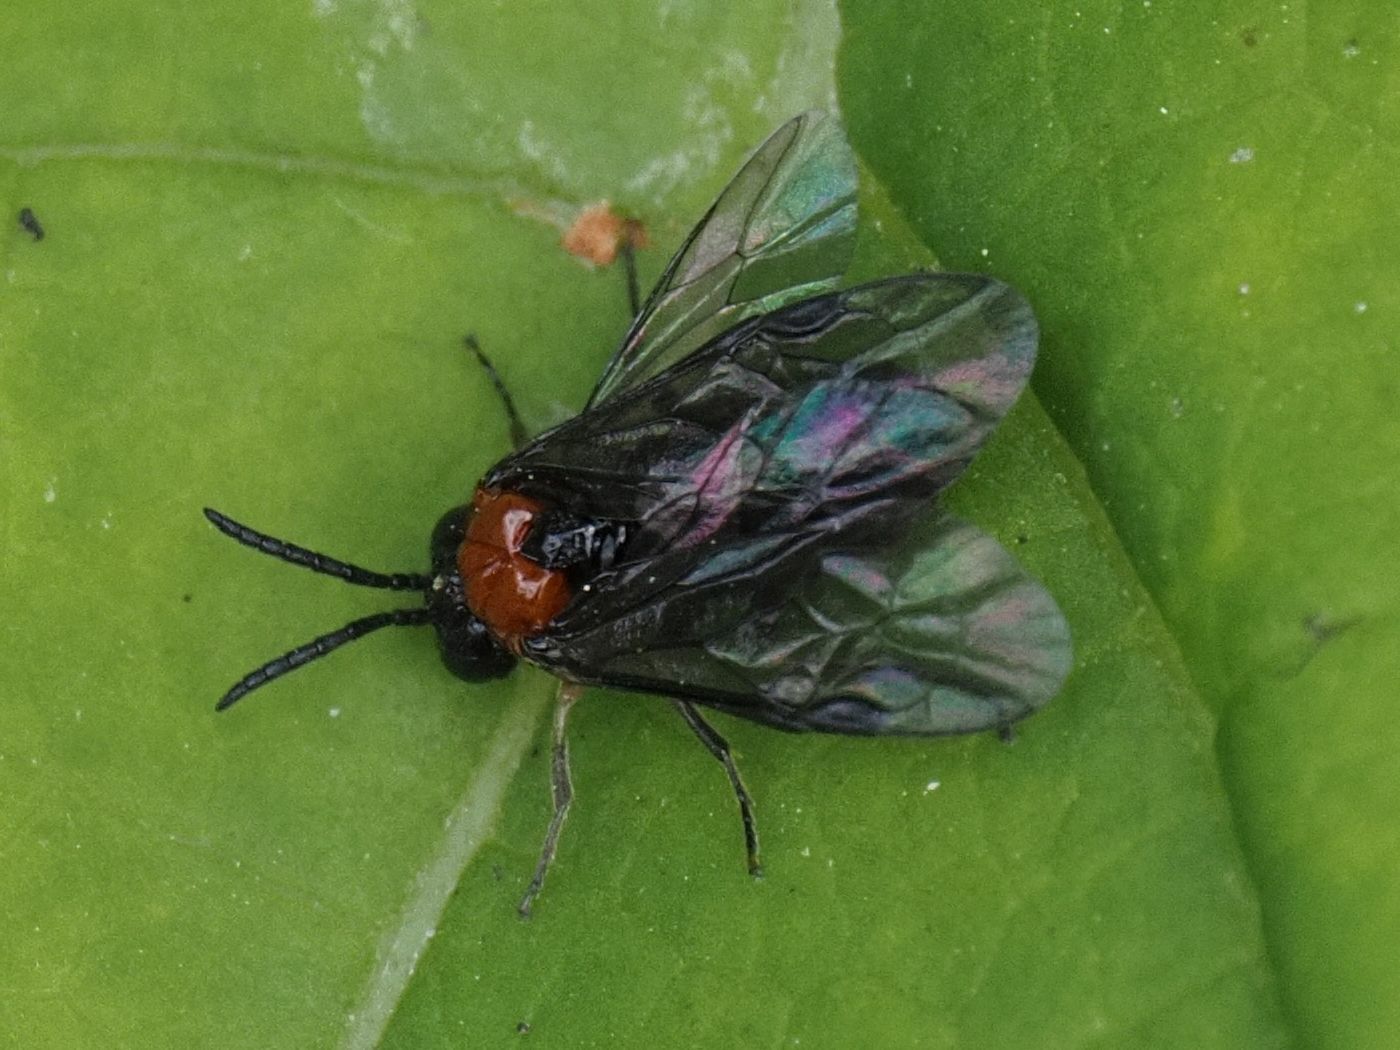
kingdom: Animalia
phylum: Arthropoda
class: Insecta
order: Hymenoptera
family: Tenthredinidae
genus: Eutomostethus
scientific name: Eutomostethus ephippium
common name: Tenthredid wasp
